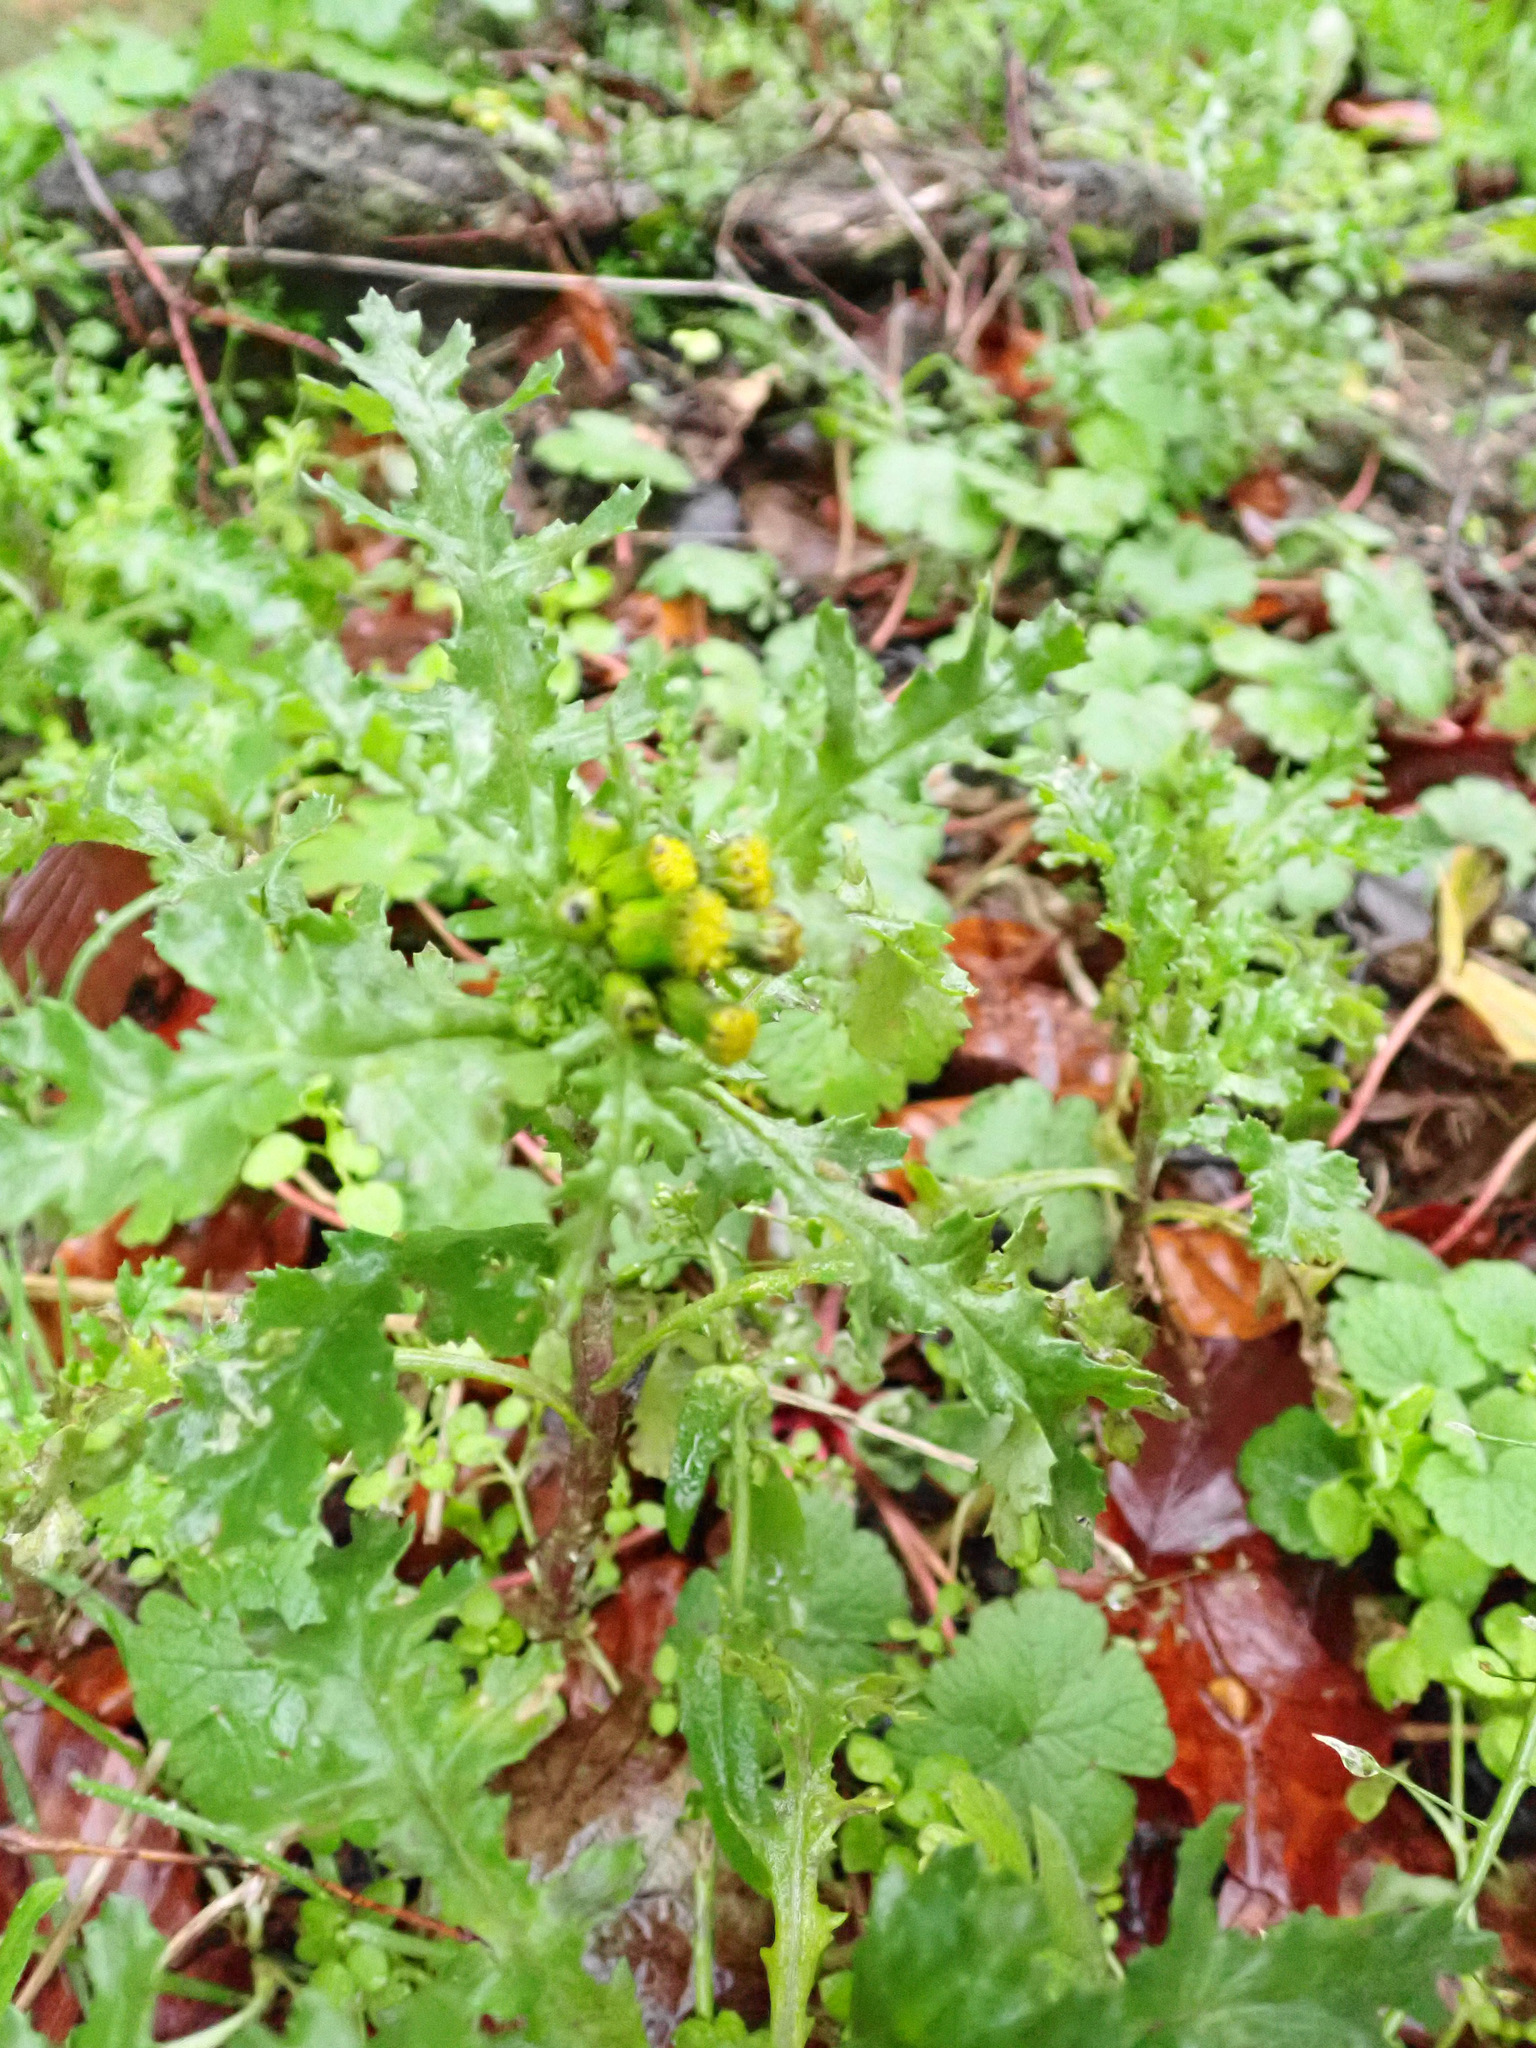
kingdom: Plantae
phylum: Tracheophyta
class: Magnoliopsida
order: Asterales
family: Asteraceae
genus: Senecio
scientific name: Senecio vulgaris
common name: Old-man-in-the-spring
